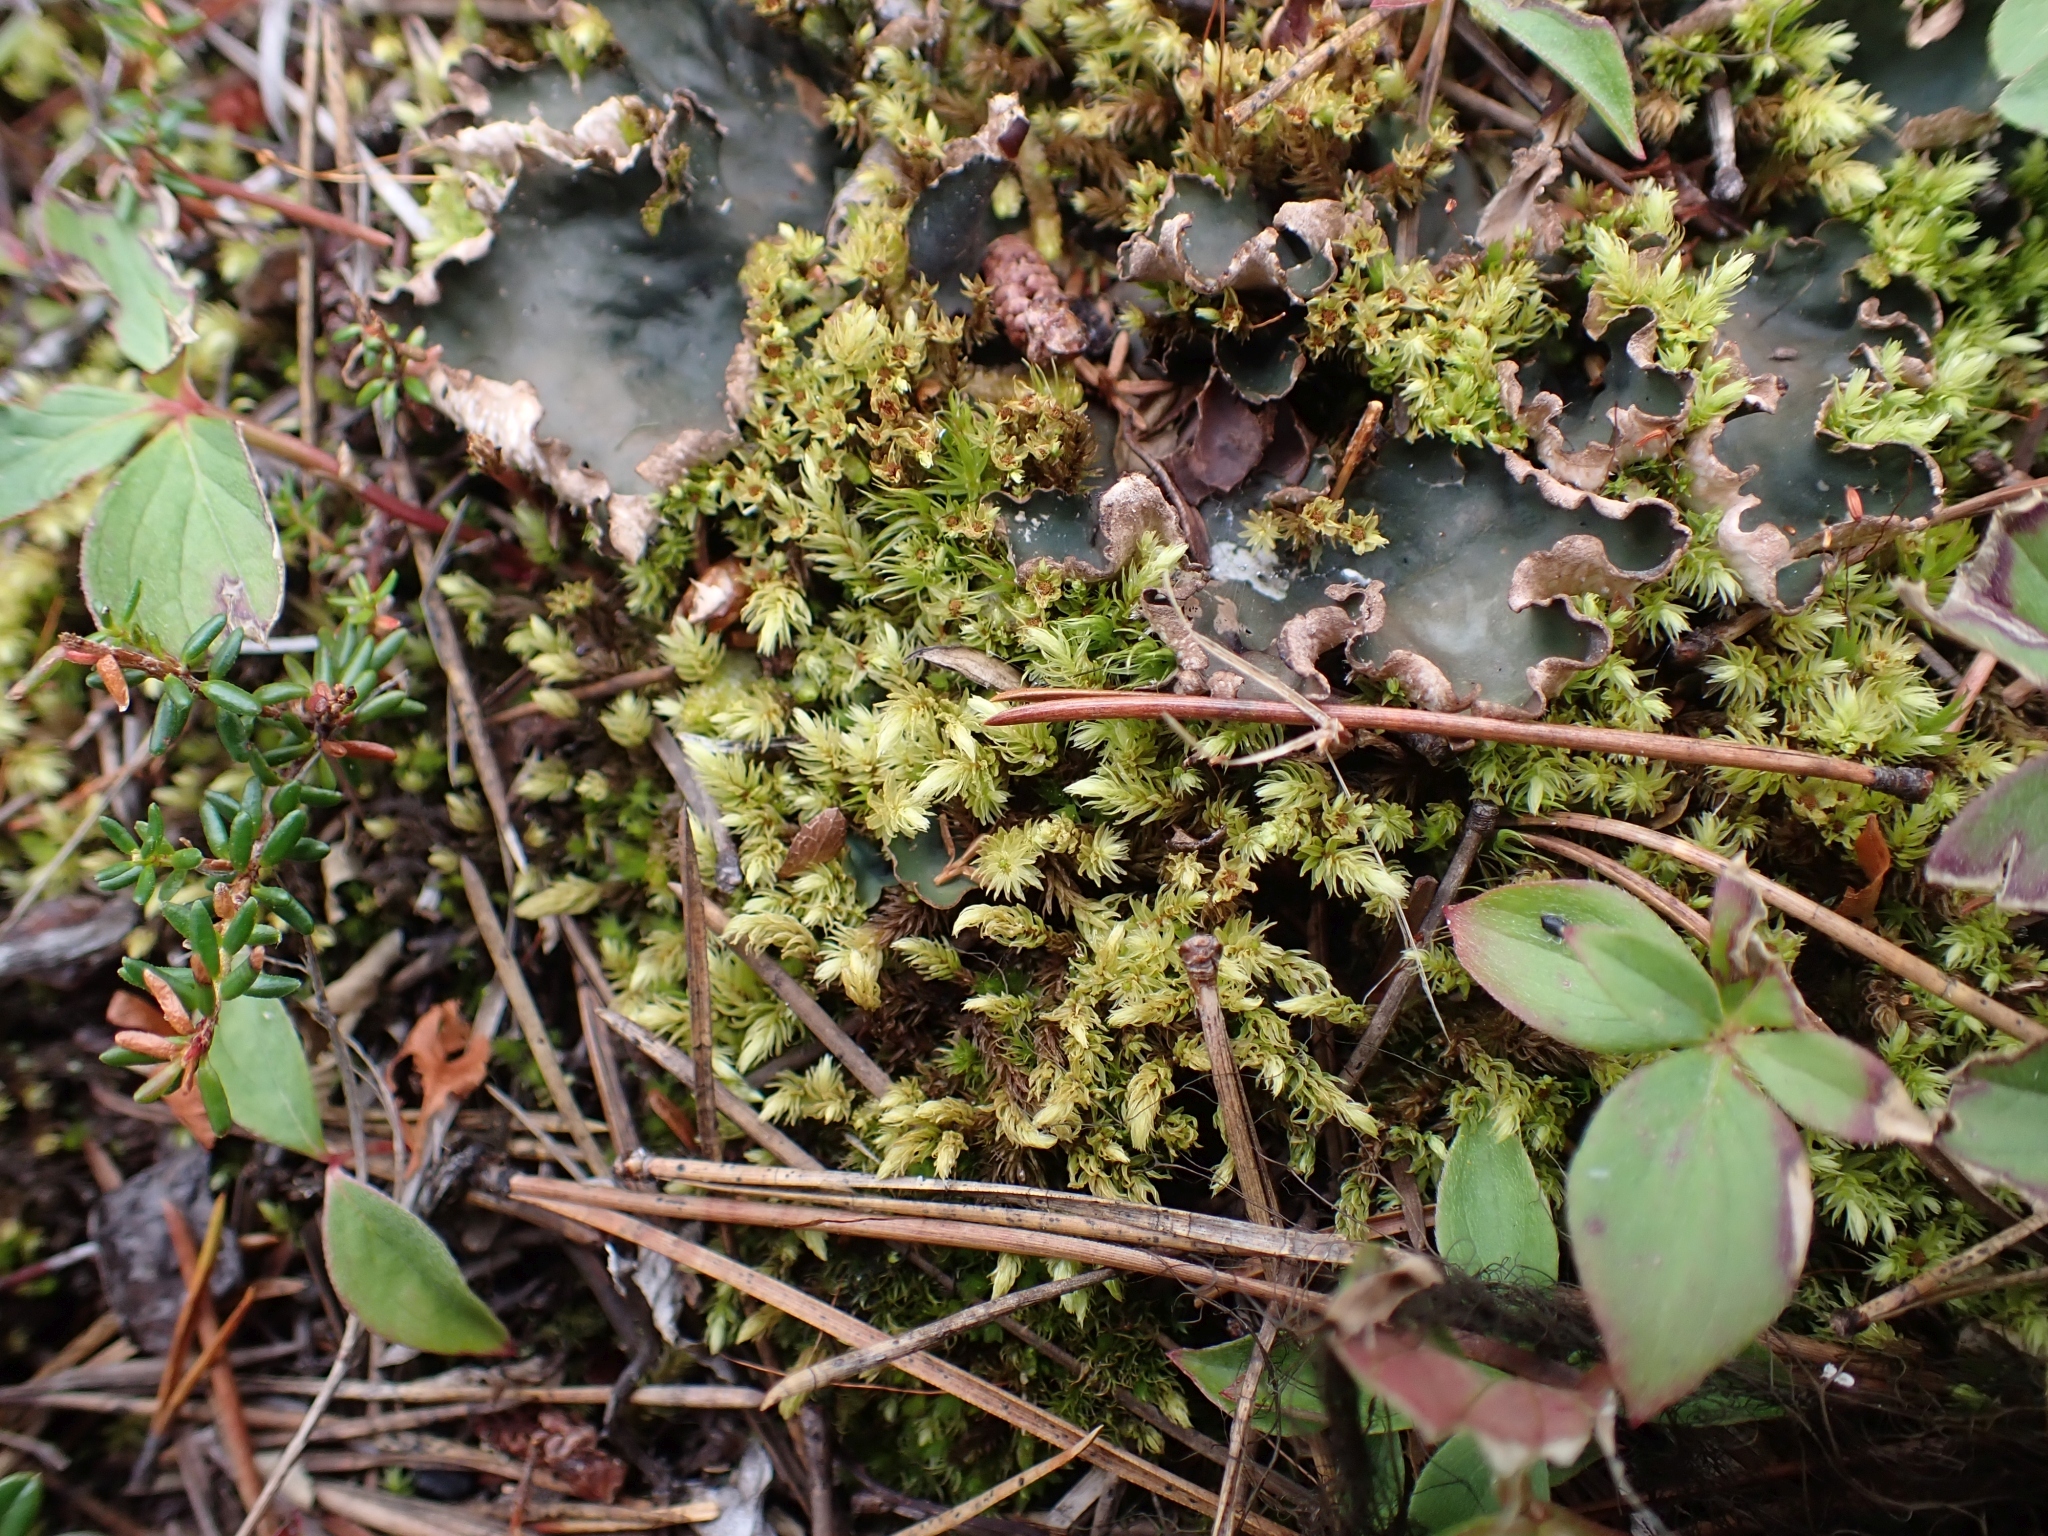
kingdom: Plantae
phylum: Bryophyta
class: Bryopsida
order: Aulacomniales
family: Aulacomniaceae
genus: Aulacomnium
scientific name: Aulacomnium androgynum
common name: Little groove moss
